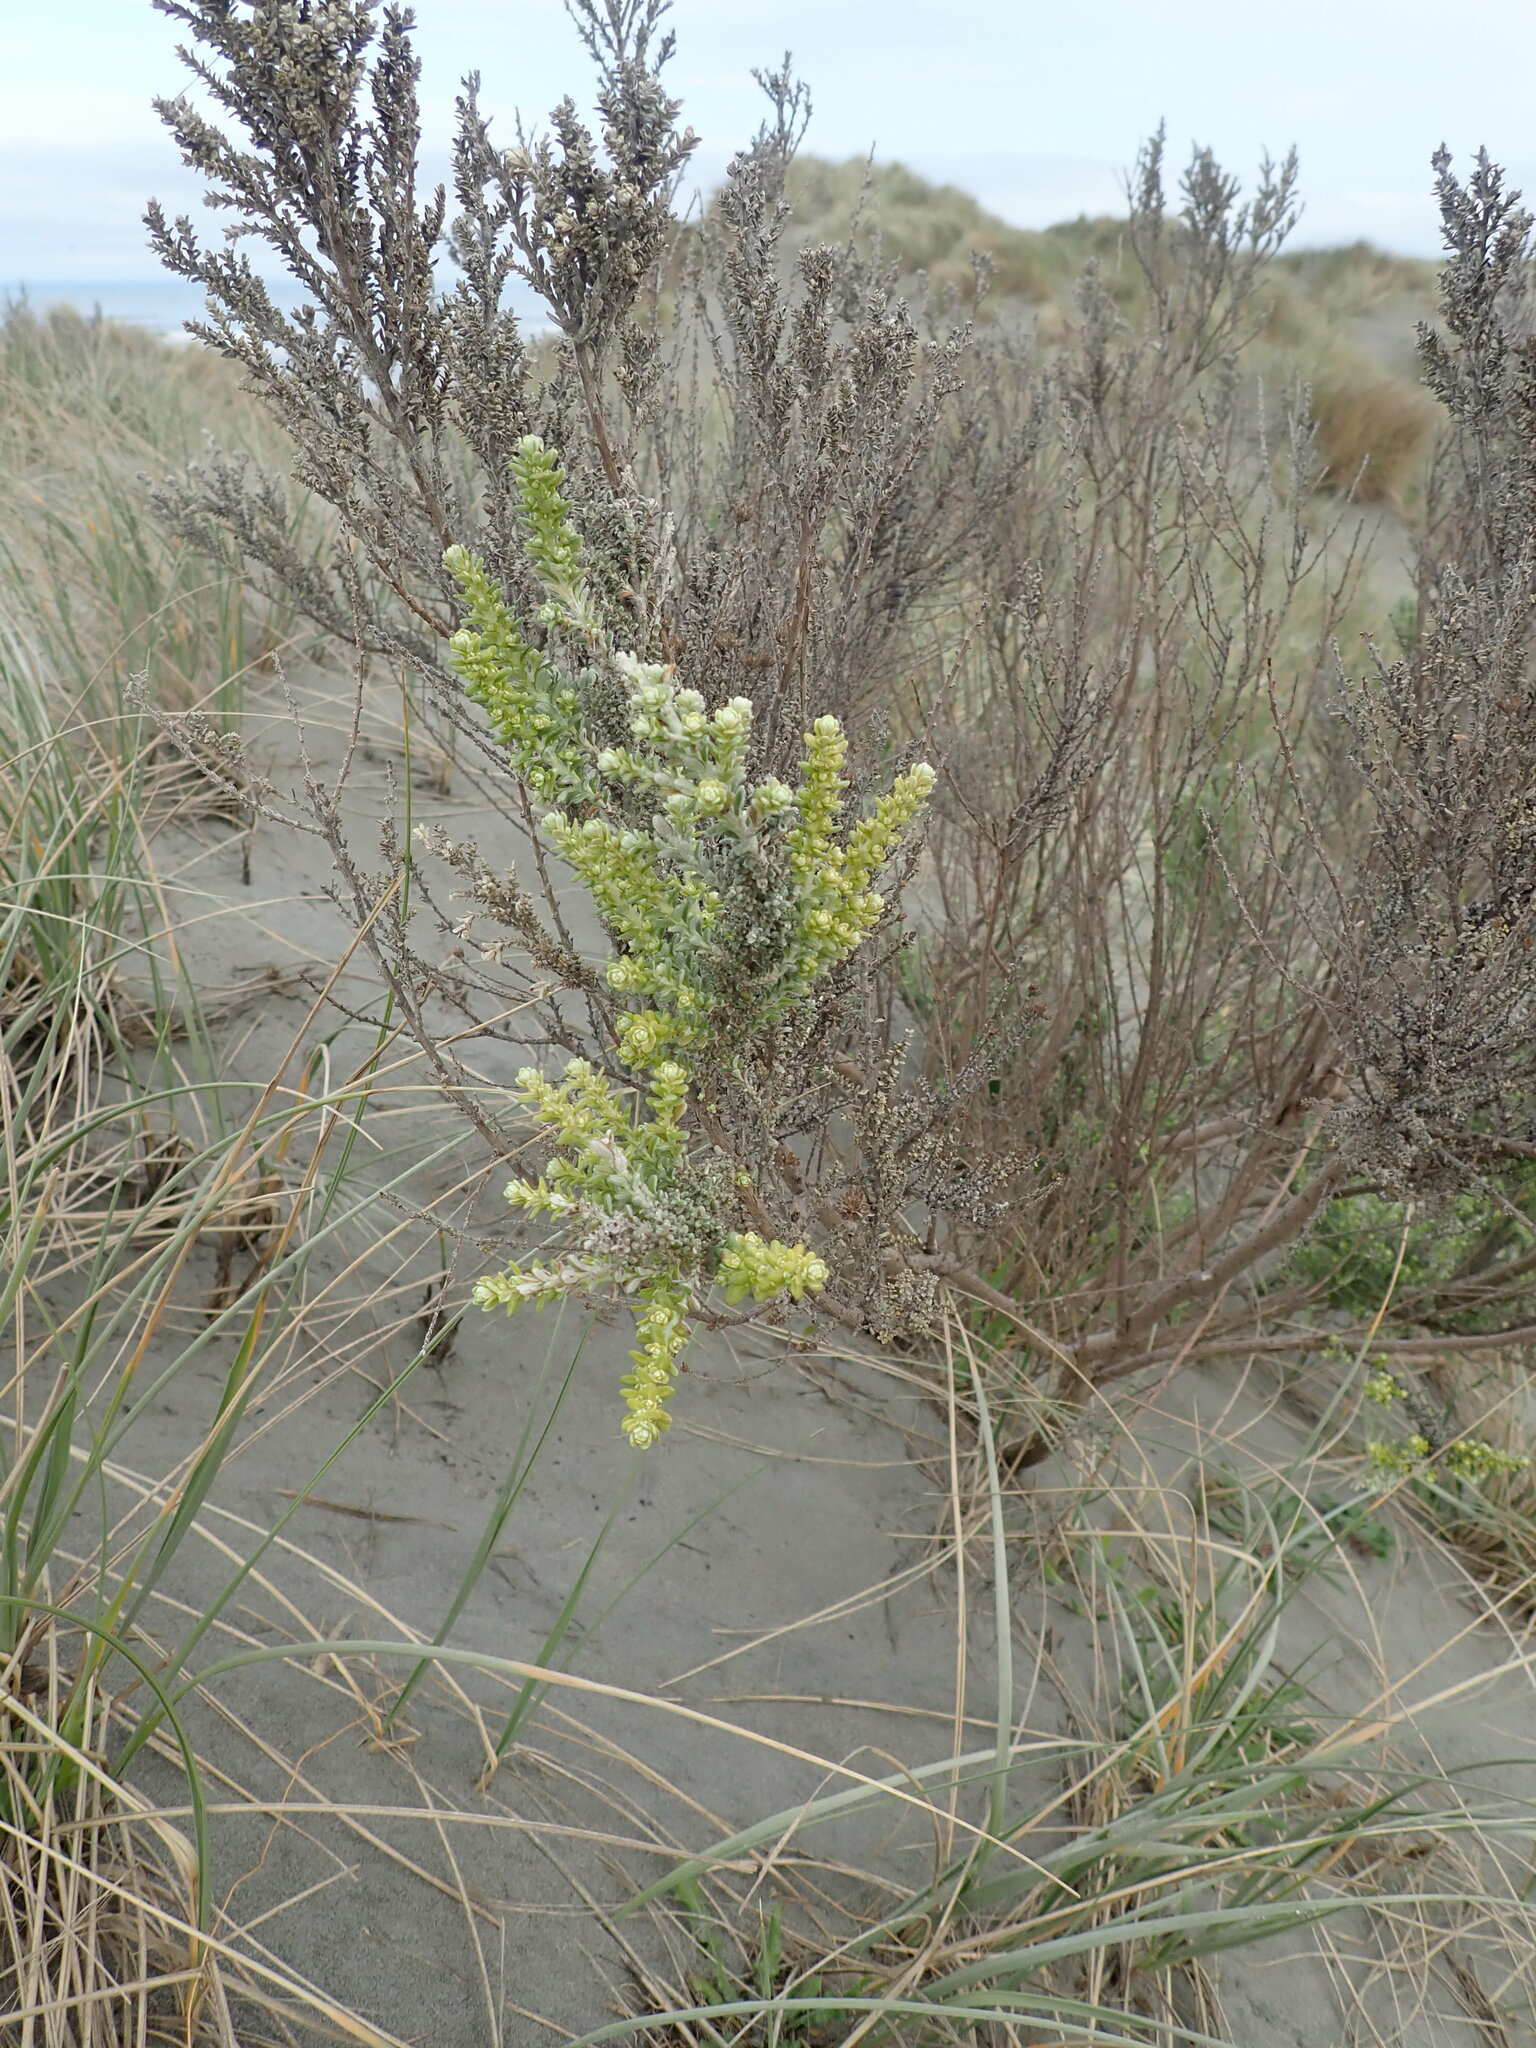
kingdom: Plantae
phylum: Tracheophyta
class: Magnoliopsida
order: Asterales
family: Asteraceae
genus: Ozothamnus
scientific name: Ozothamnus leptophyllus
